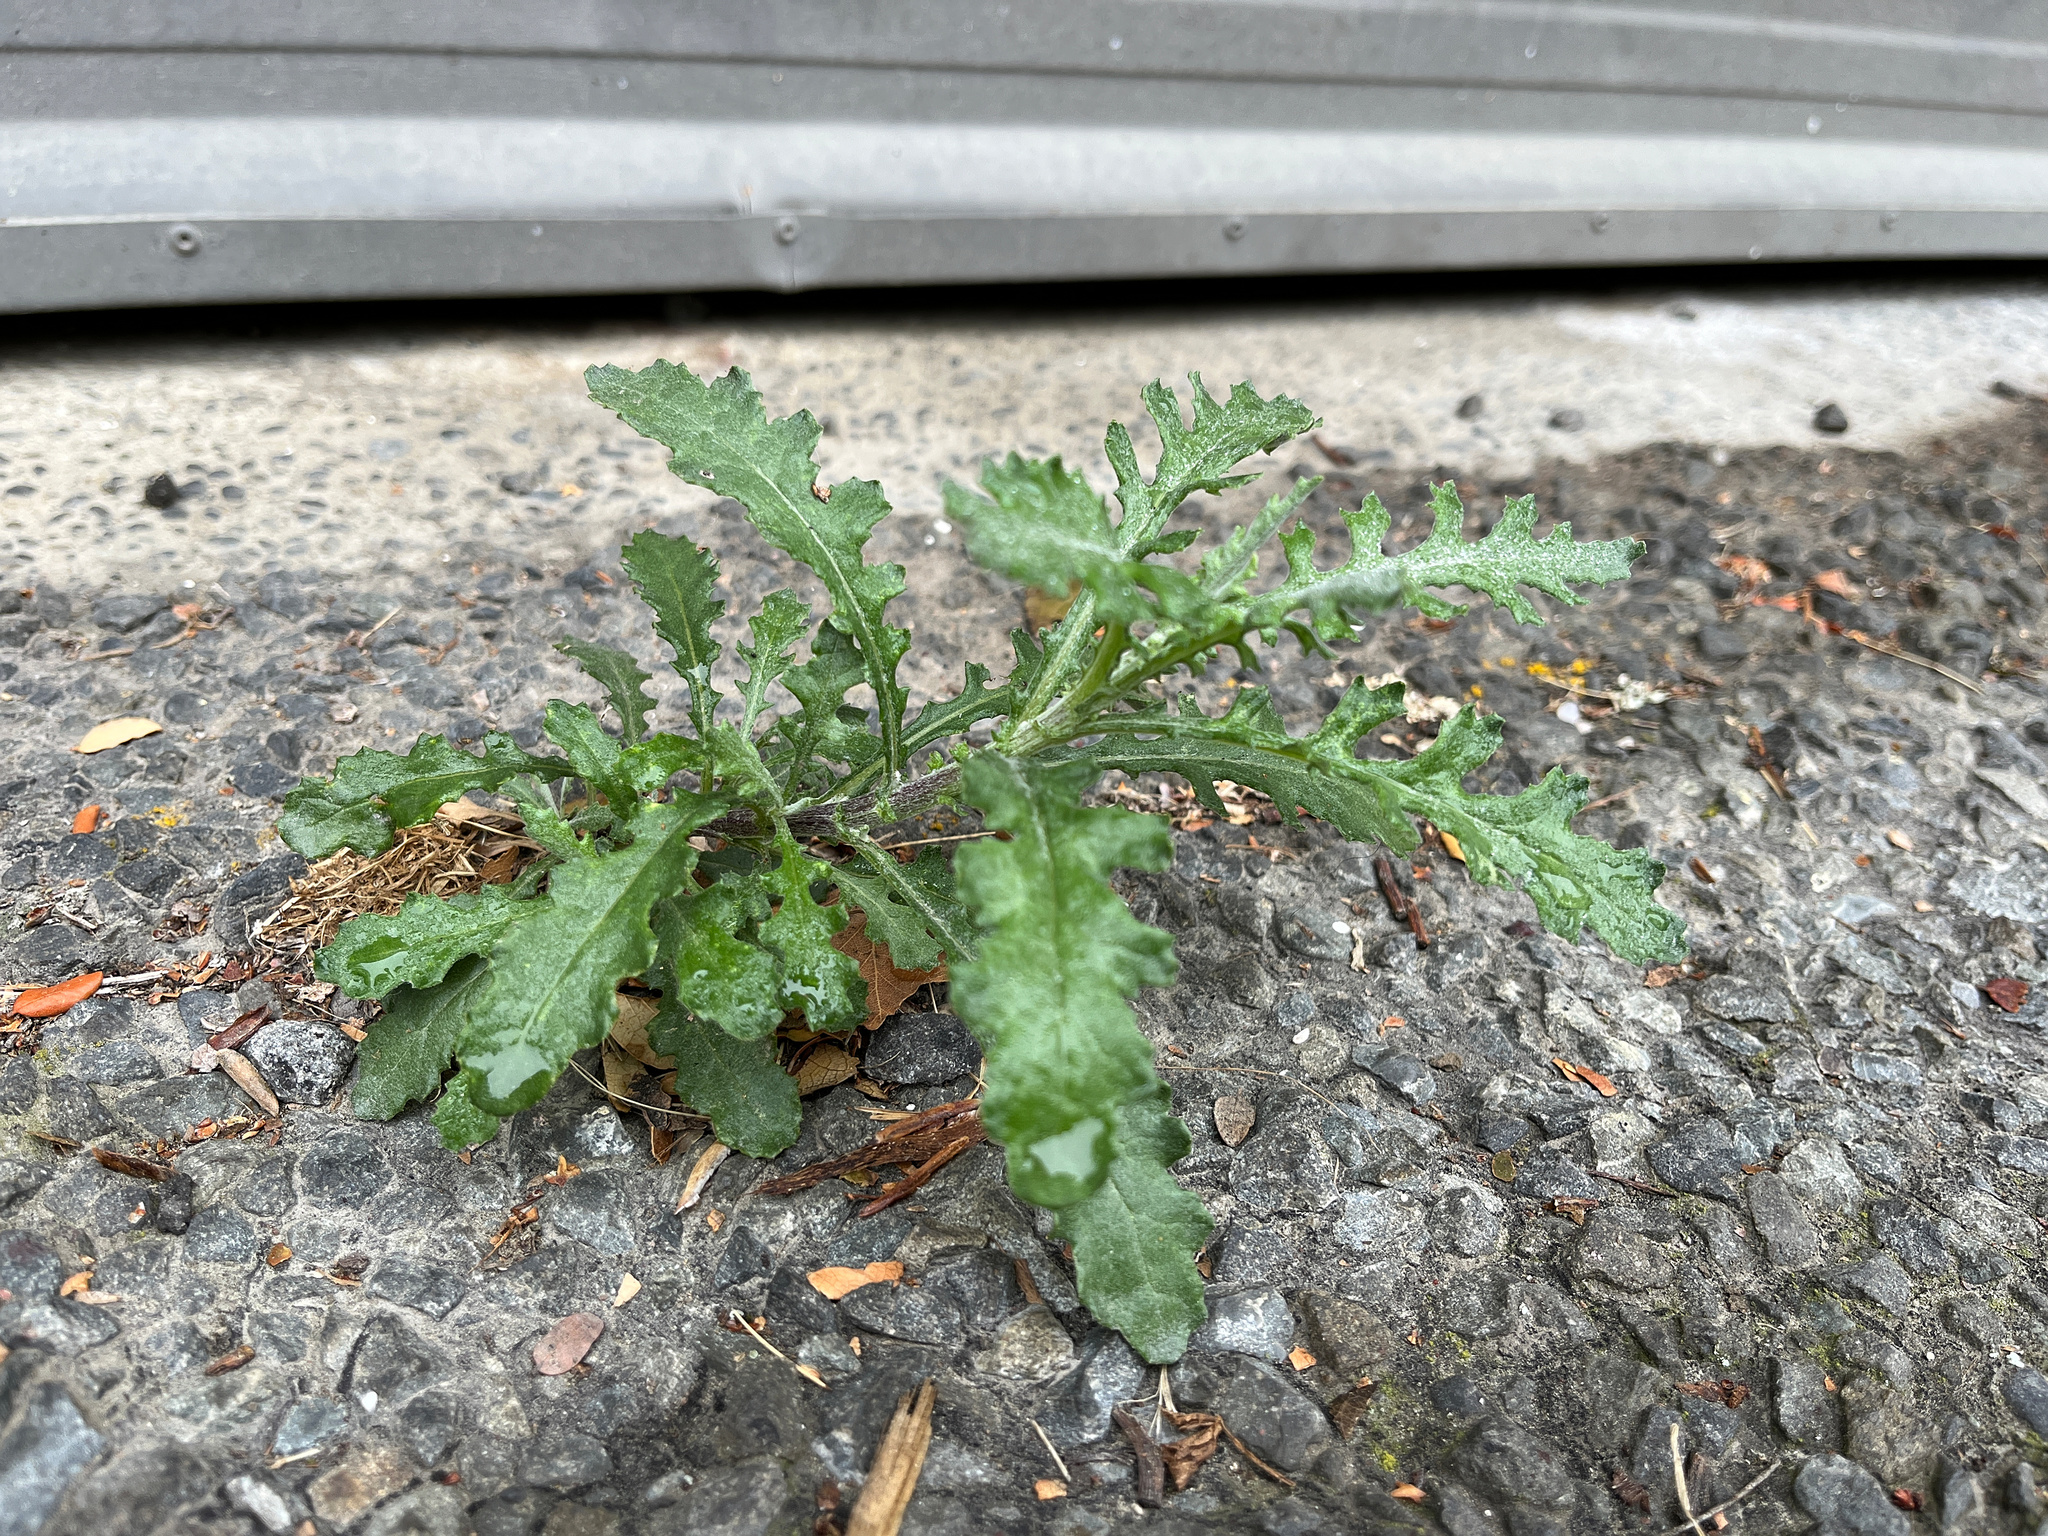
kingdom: Plantae
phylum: Tracheophyta
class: Magnoliopsida
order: Asterales
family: Asteraceae
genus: Senecio
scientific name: Senecio glomeratus
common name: Cutleaf burnweed
